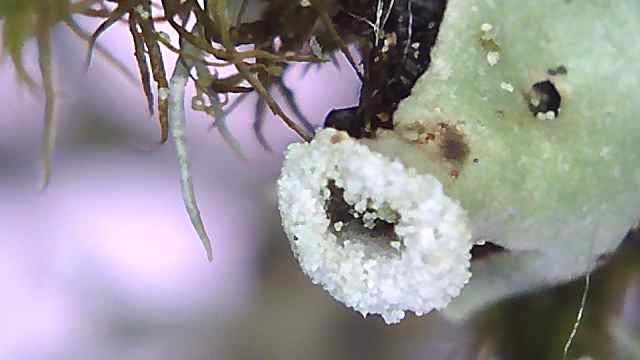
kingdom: Fungi
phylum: Ascomycota
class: Lecanoromycetes
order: Lecanorales
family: Parmeliaceae
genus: Menegazzia
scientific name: Menegazzia terebrata
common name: Magic treeflute lichen
